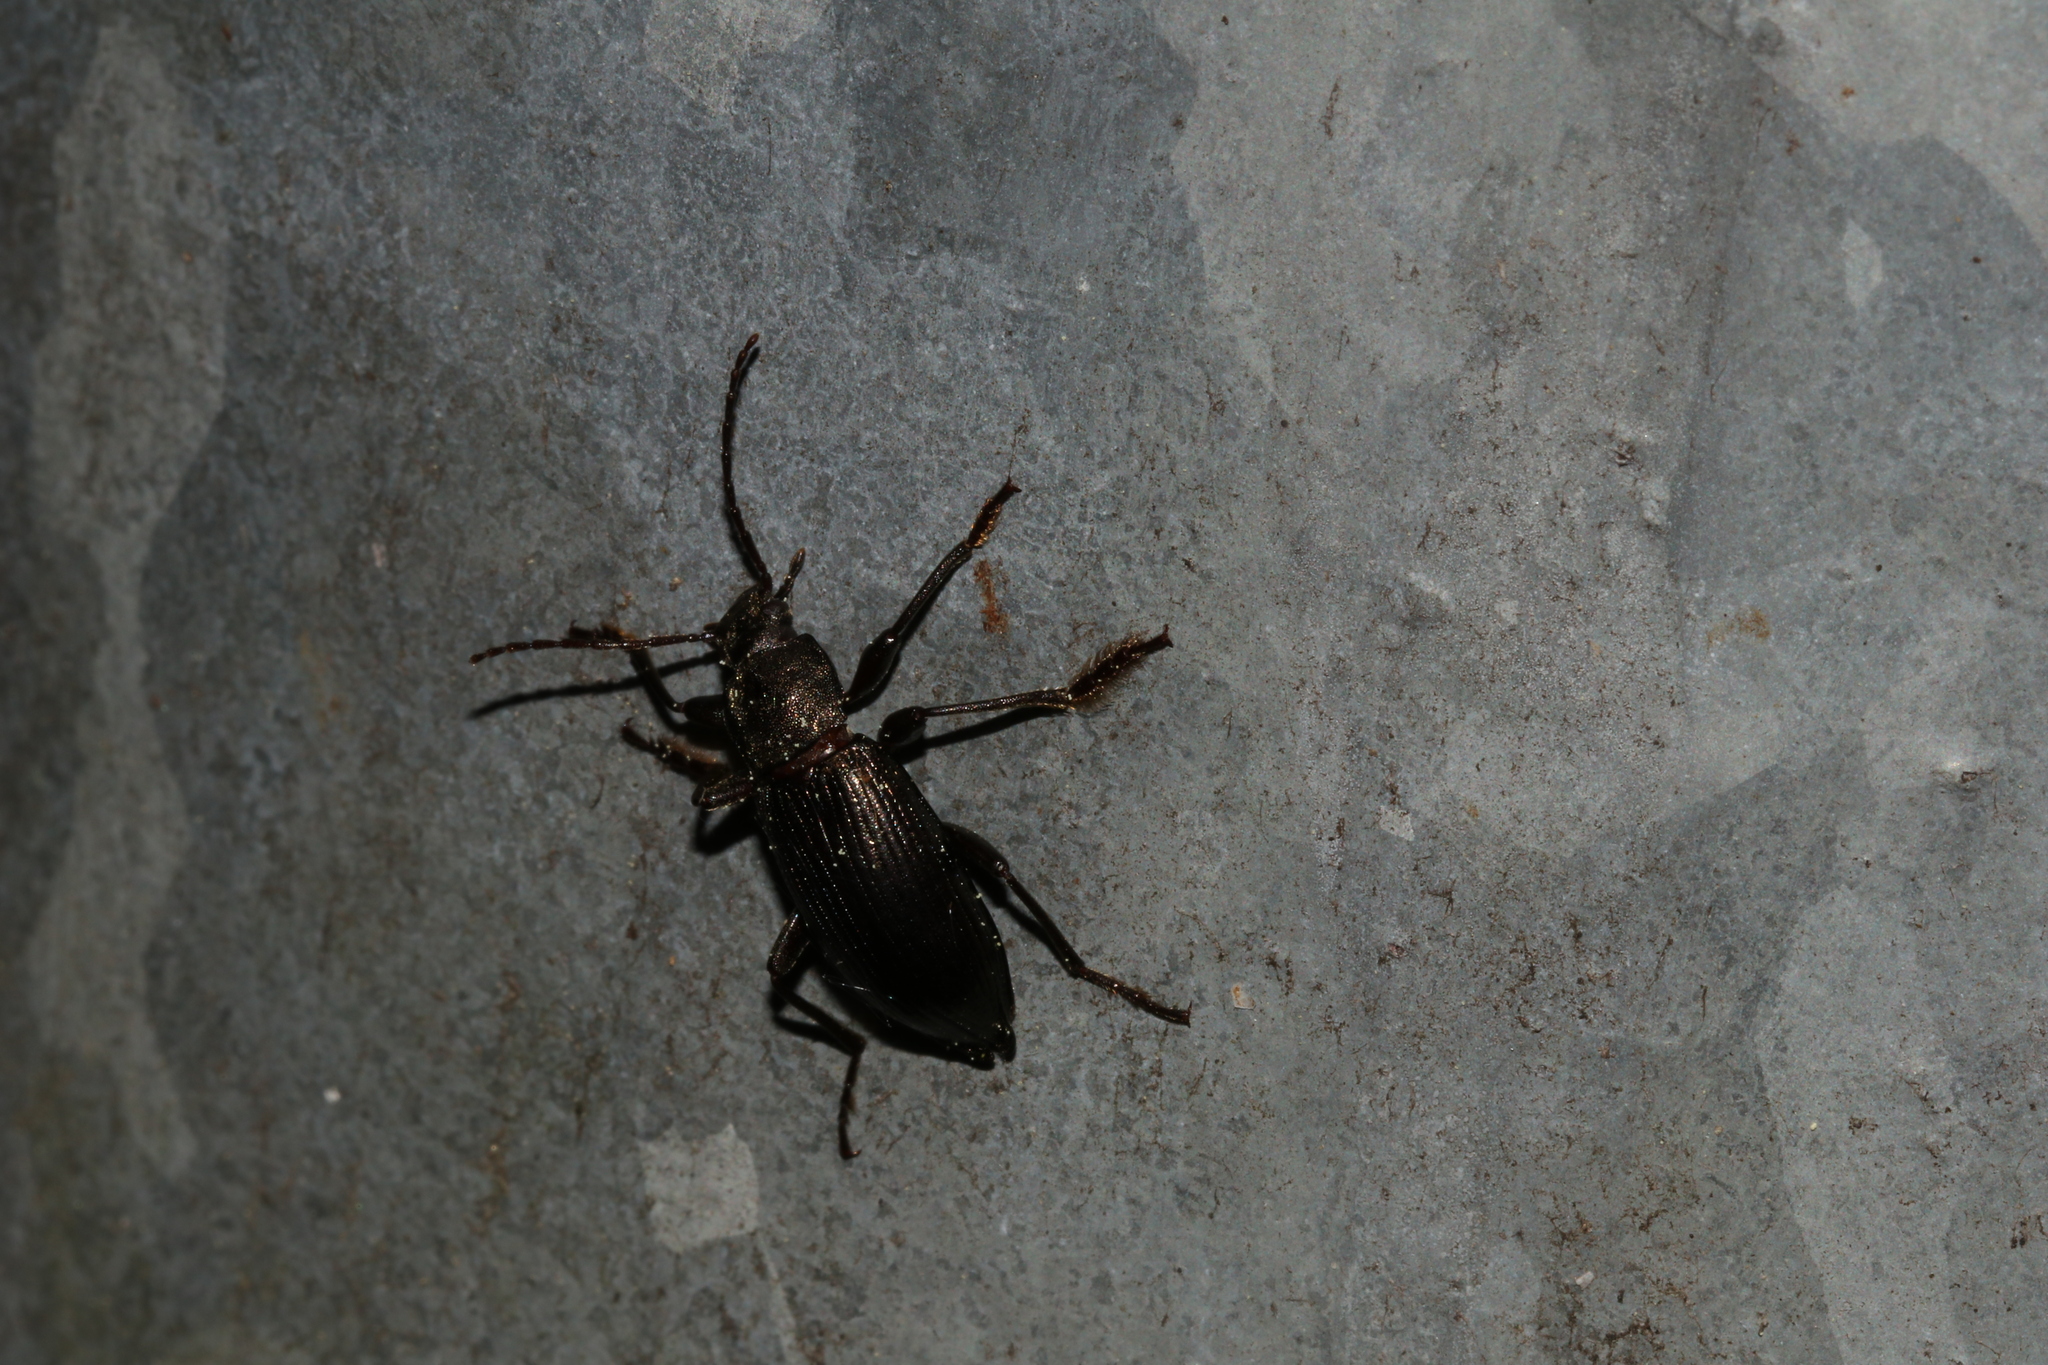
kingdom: Animalia
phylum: Arthropoda
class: Insecta
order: Coleoptera
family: Tenebrionidae
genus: Stenomax
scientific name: Stenomax aeneus
